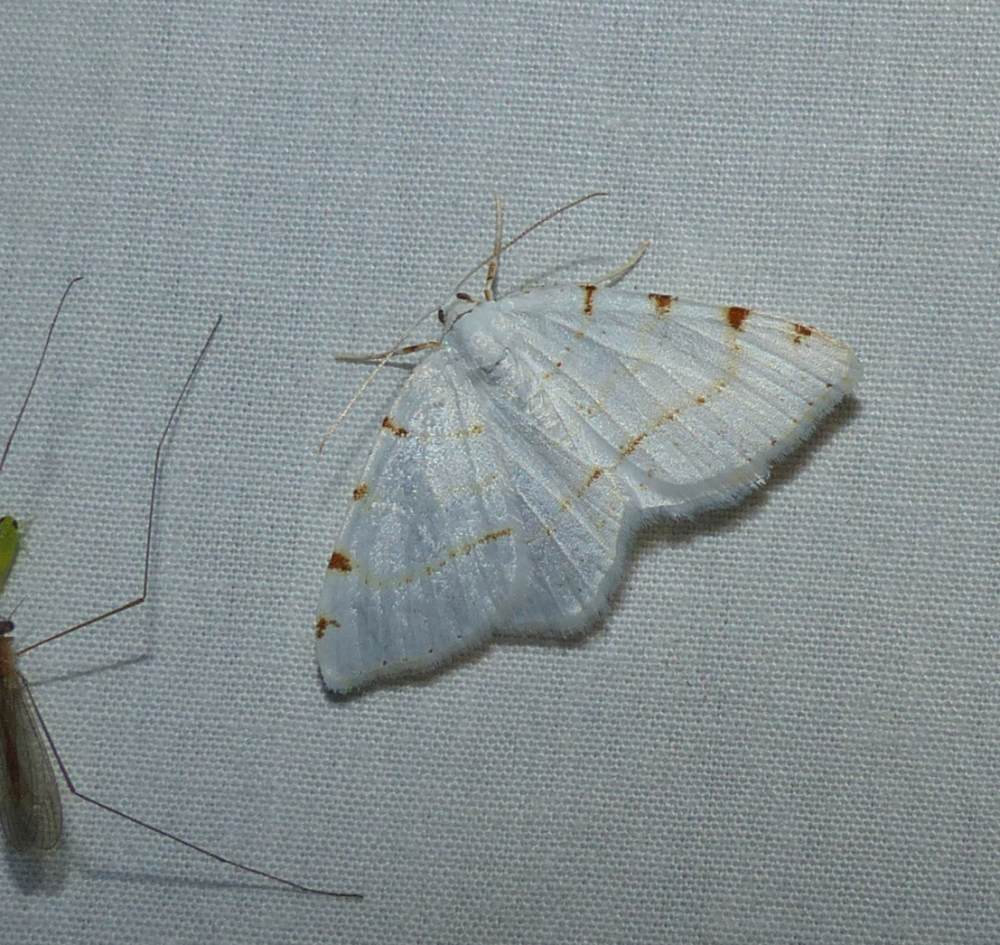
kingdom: Animalia
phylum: Arthropoda
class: Insecta
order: Lepidoptera
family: Geometridae
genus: Macaria
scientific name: Macaria pustularia
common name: Lesser maple spanworm moth
